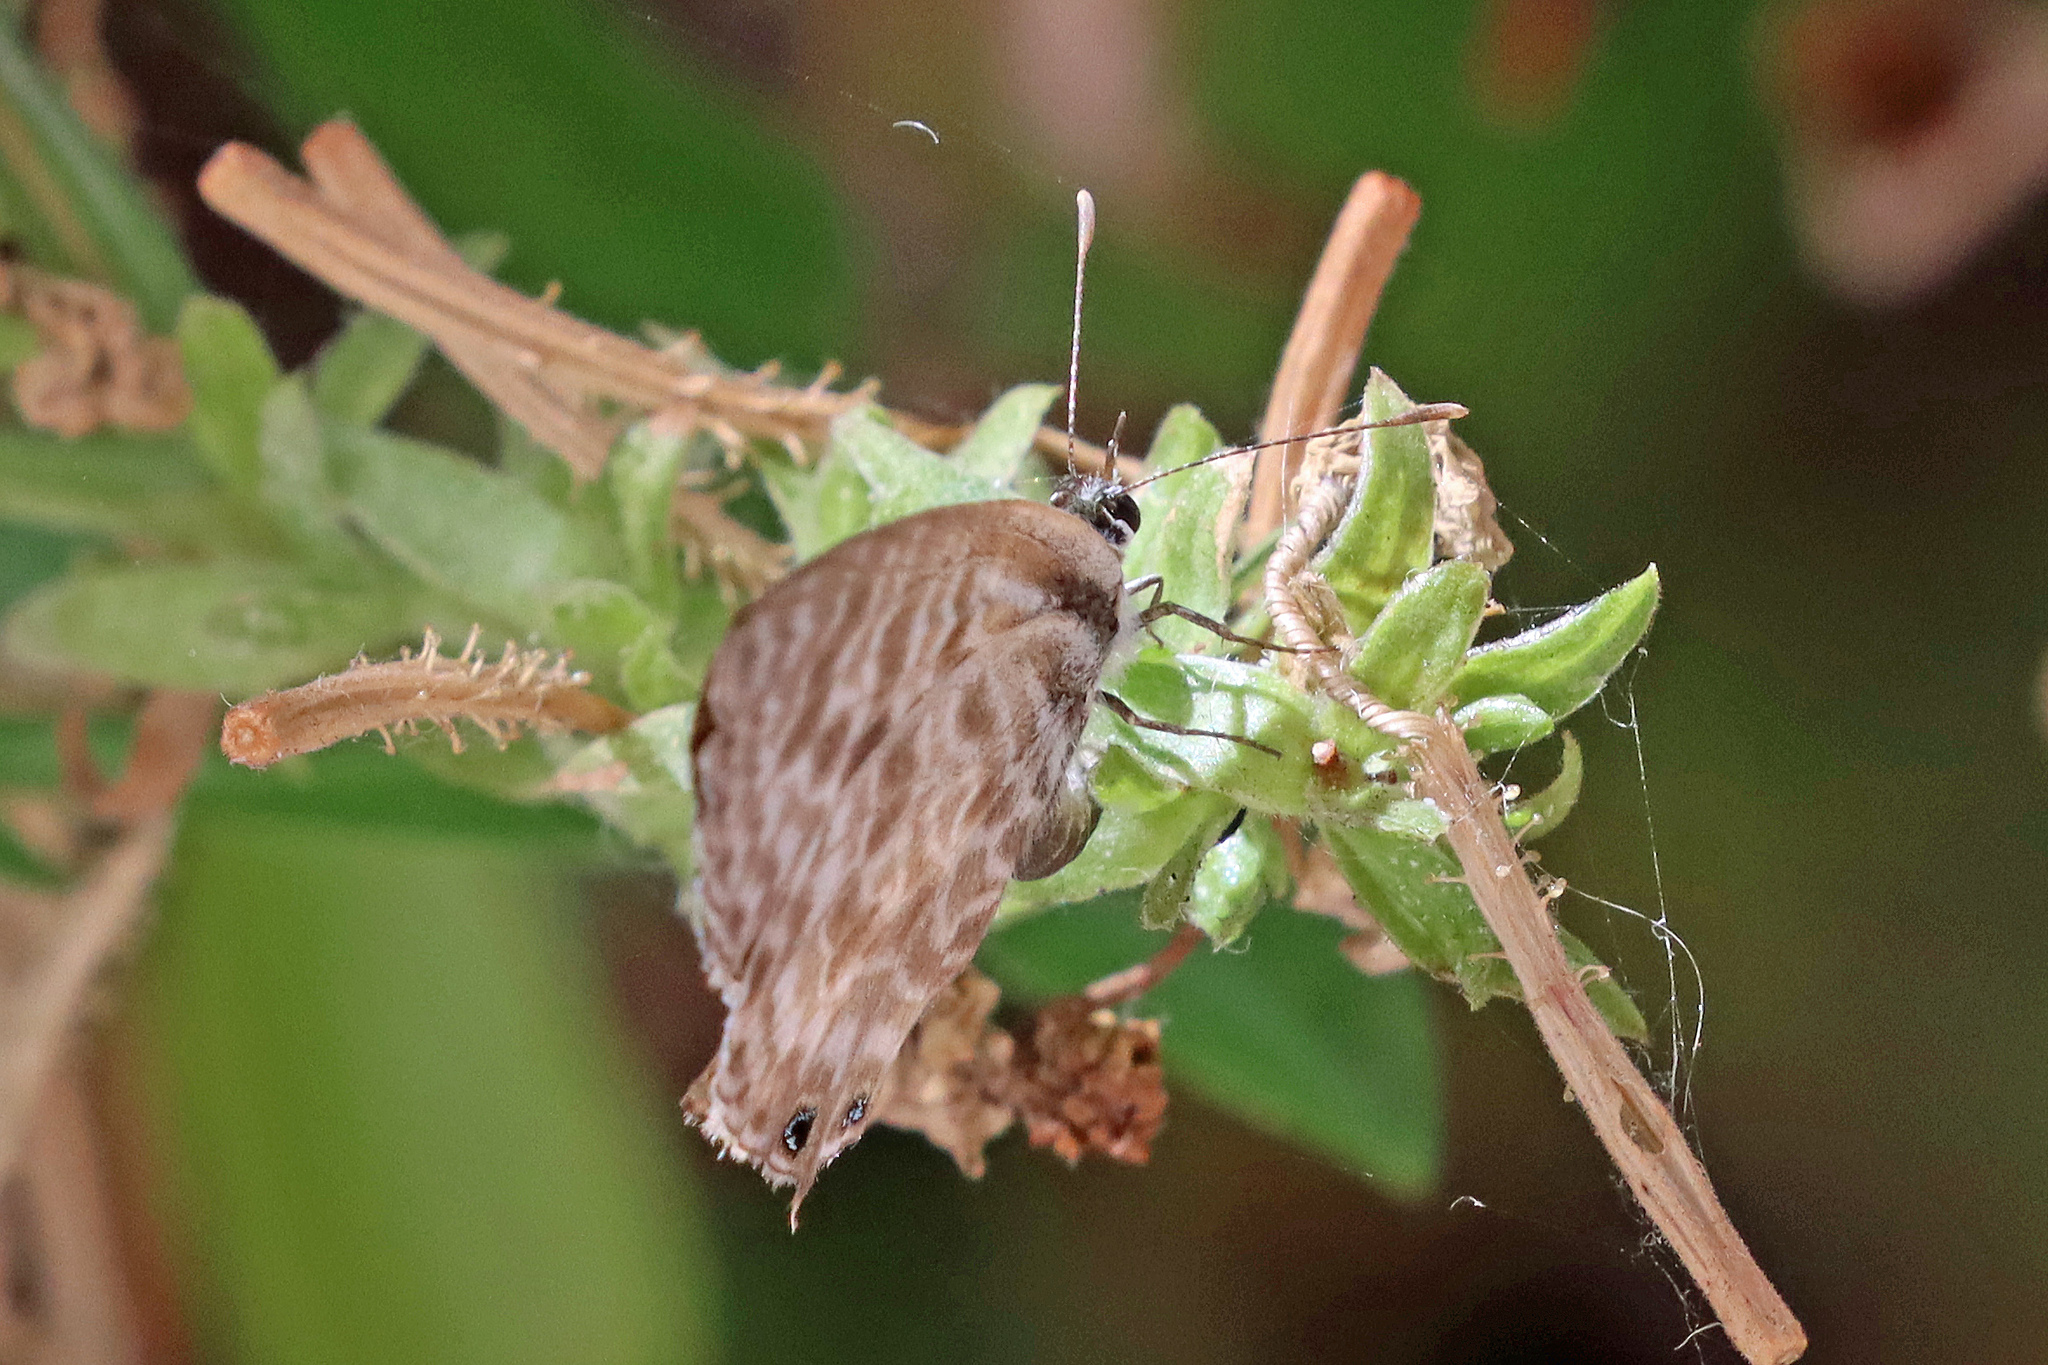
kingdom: Animalia
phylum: Arthropoda
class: Insecta
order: Lepidoptera
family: Lycaenidae
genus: Leptotes
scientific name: Leptotes pirithous
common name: Lang's short-tailed blue
